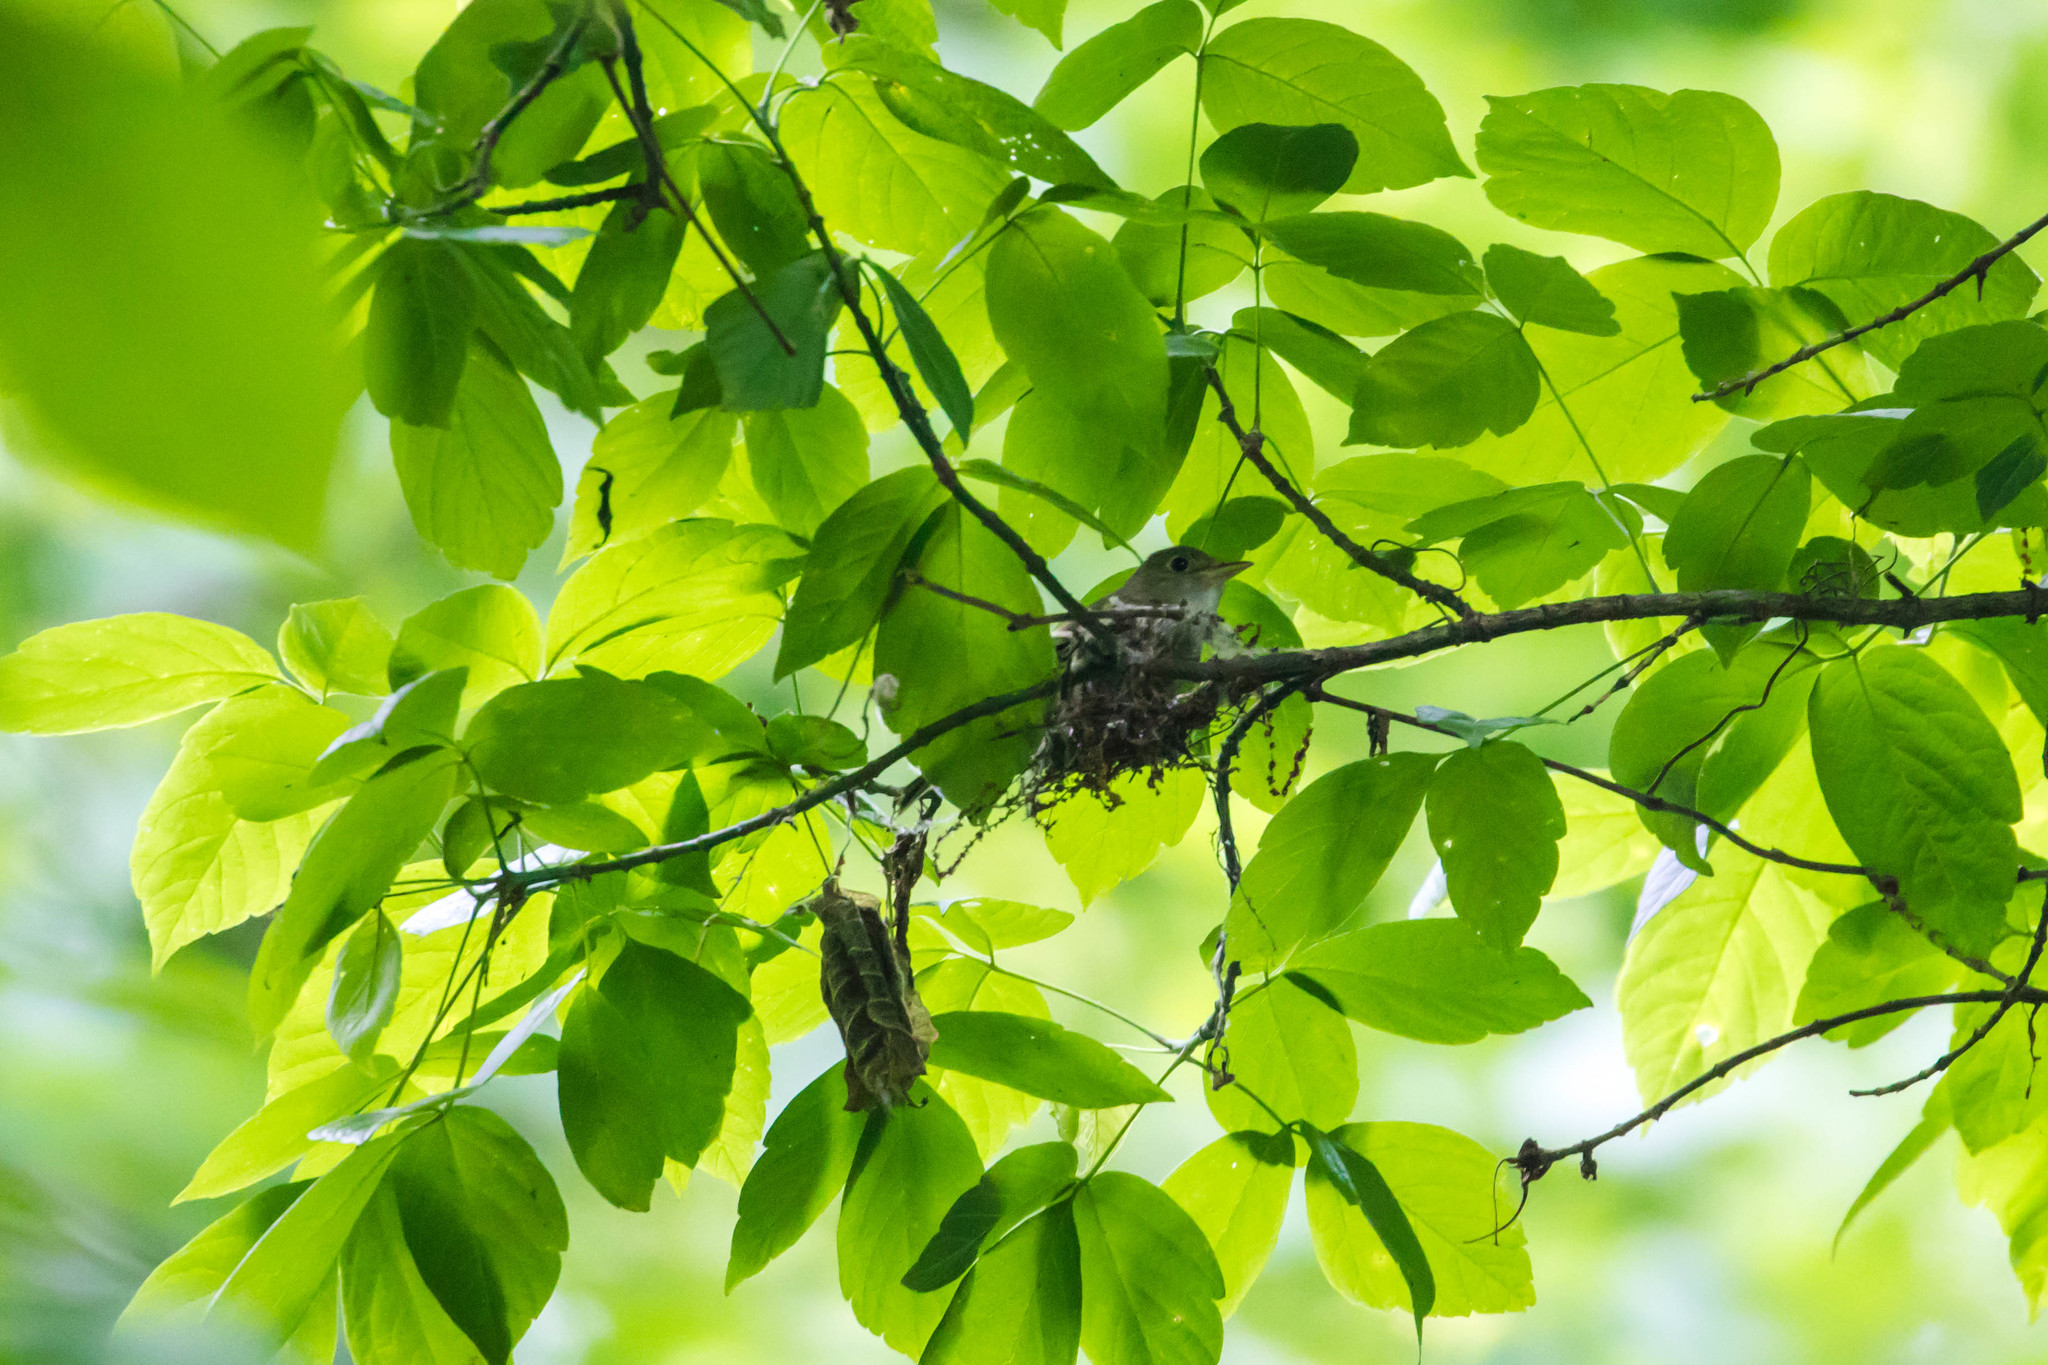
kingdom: Animalia
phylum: Chordata
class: Aves
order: Passeriformes
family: Tyrannidae
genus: Empidonax
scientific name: Empidonax virescens
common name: Acadian flycatcher
